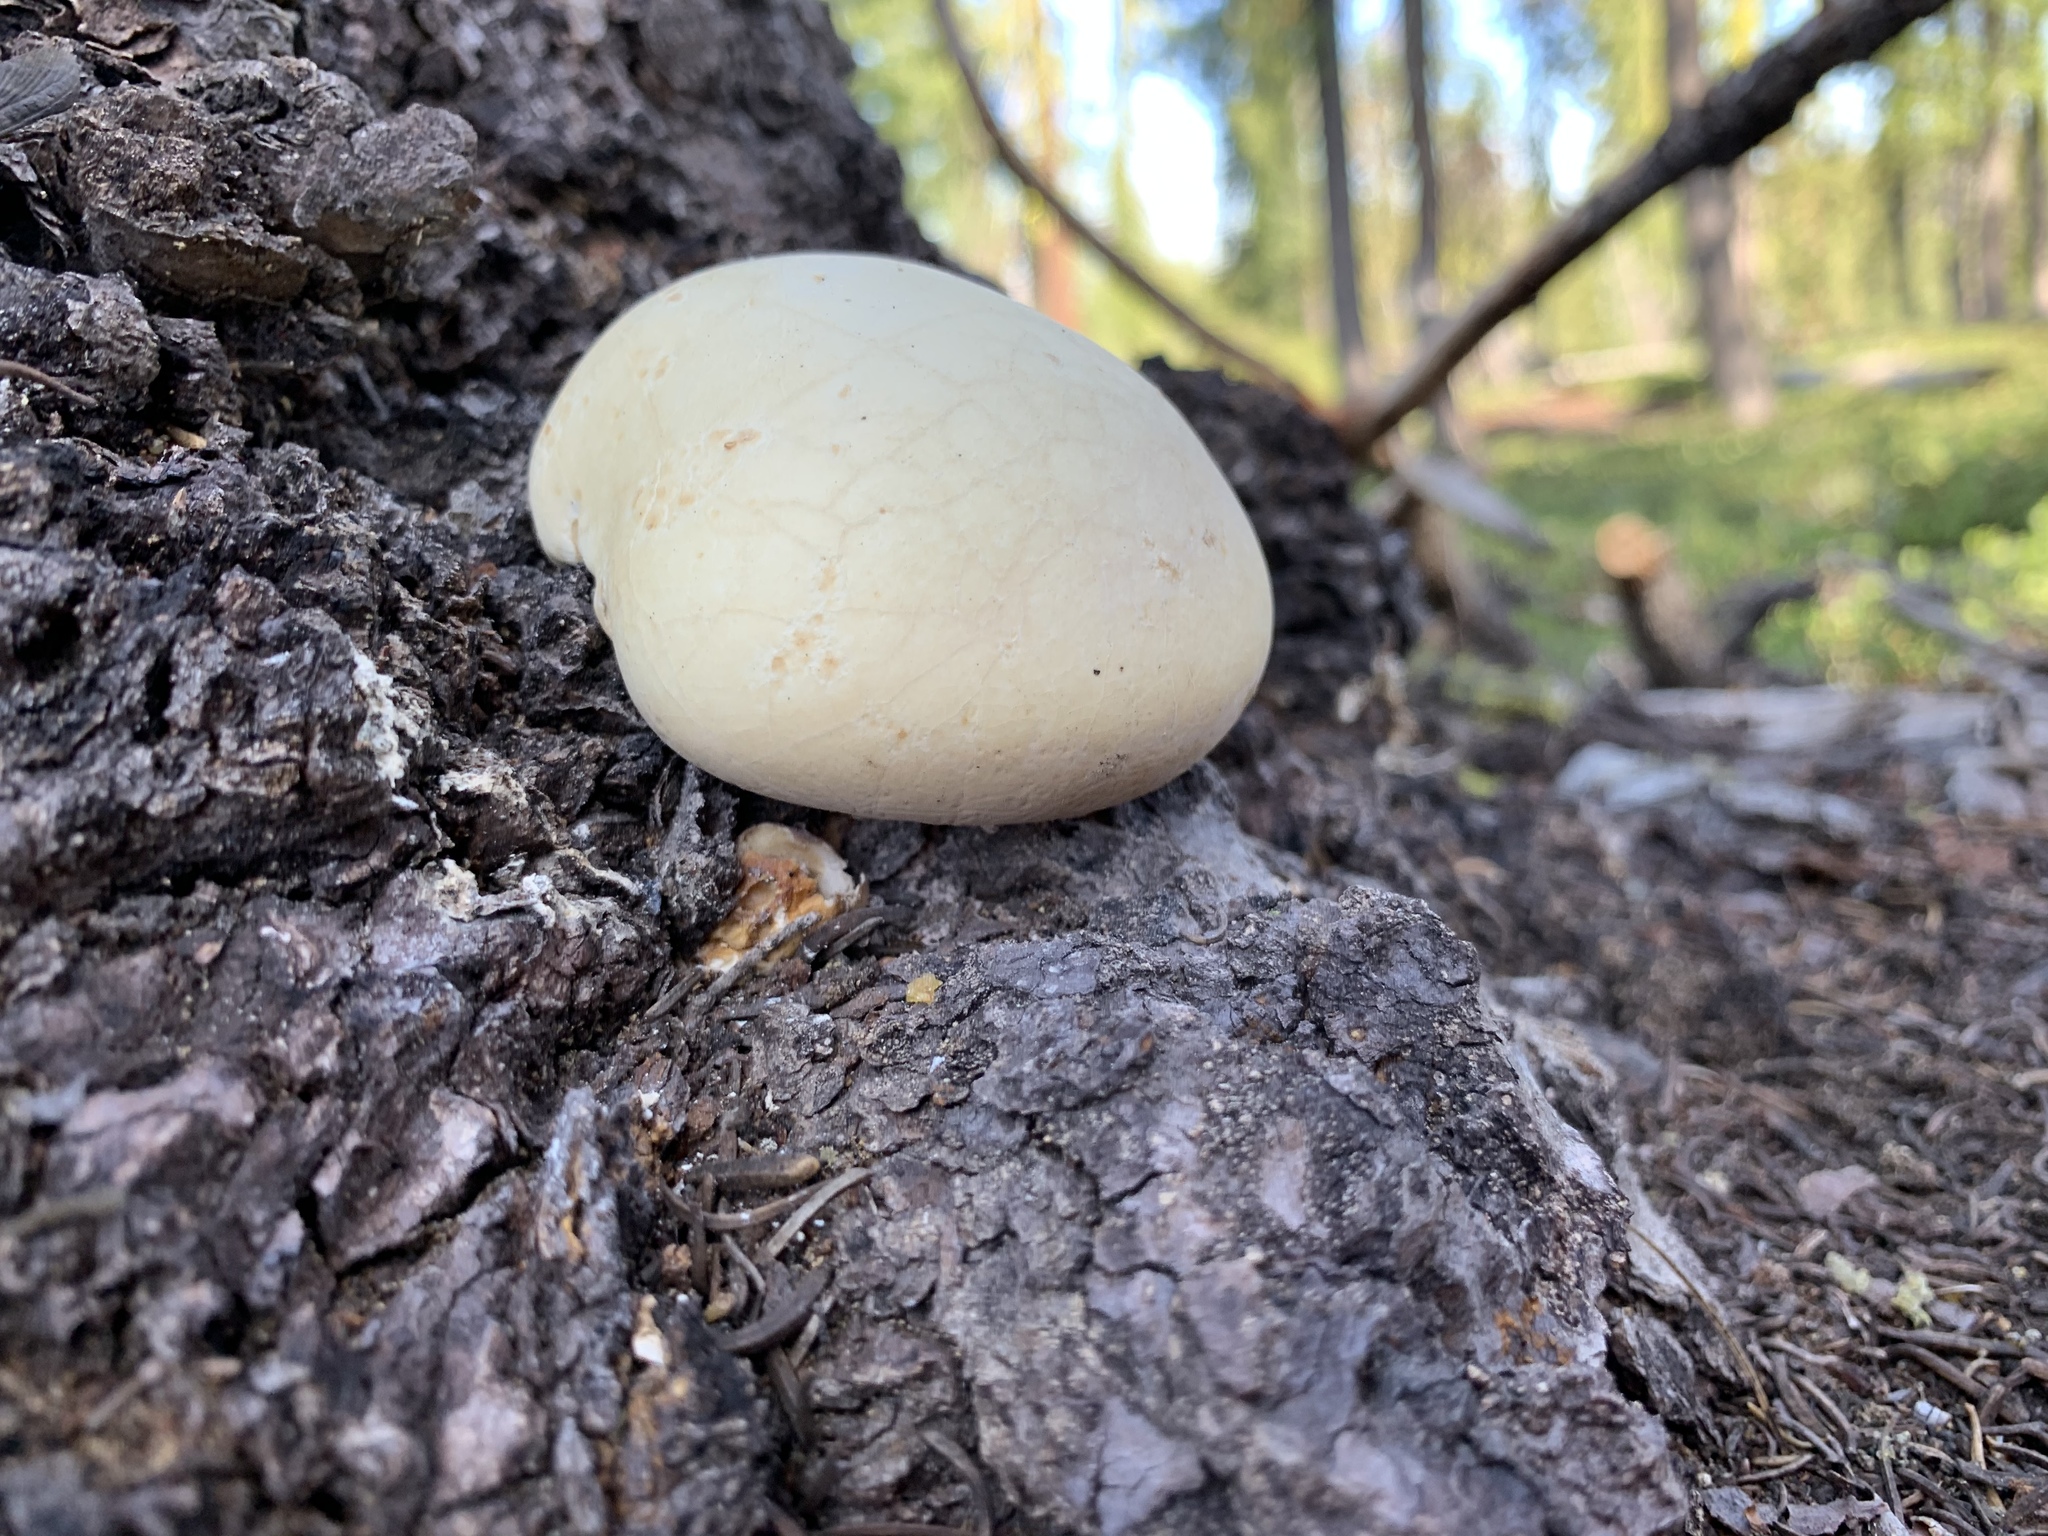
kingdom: Fungi
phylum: Basidiomycota
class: Agaricomycetes
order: Polyporales
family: Polyporaceae
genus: Cryptoporus
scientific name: Cryptoporus volvatus
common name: Veiled polypore
